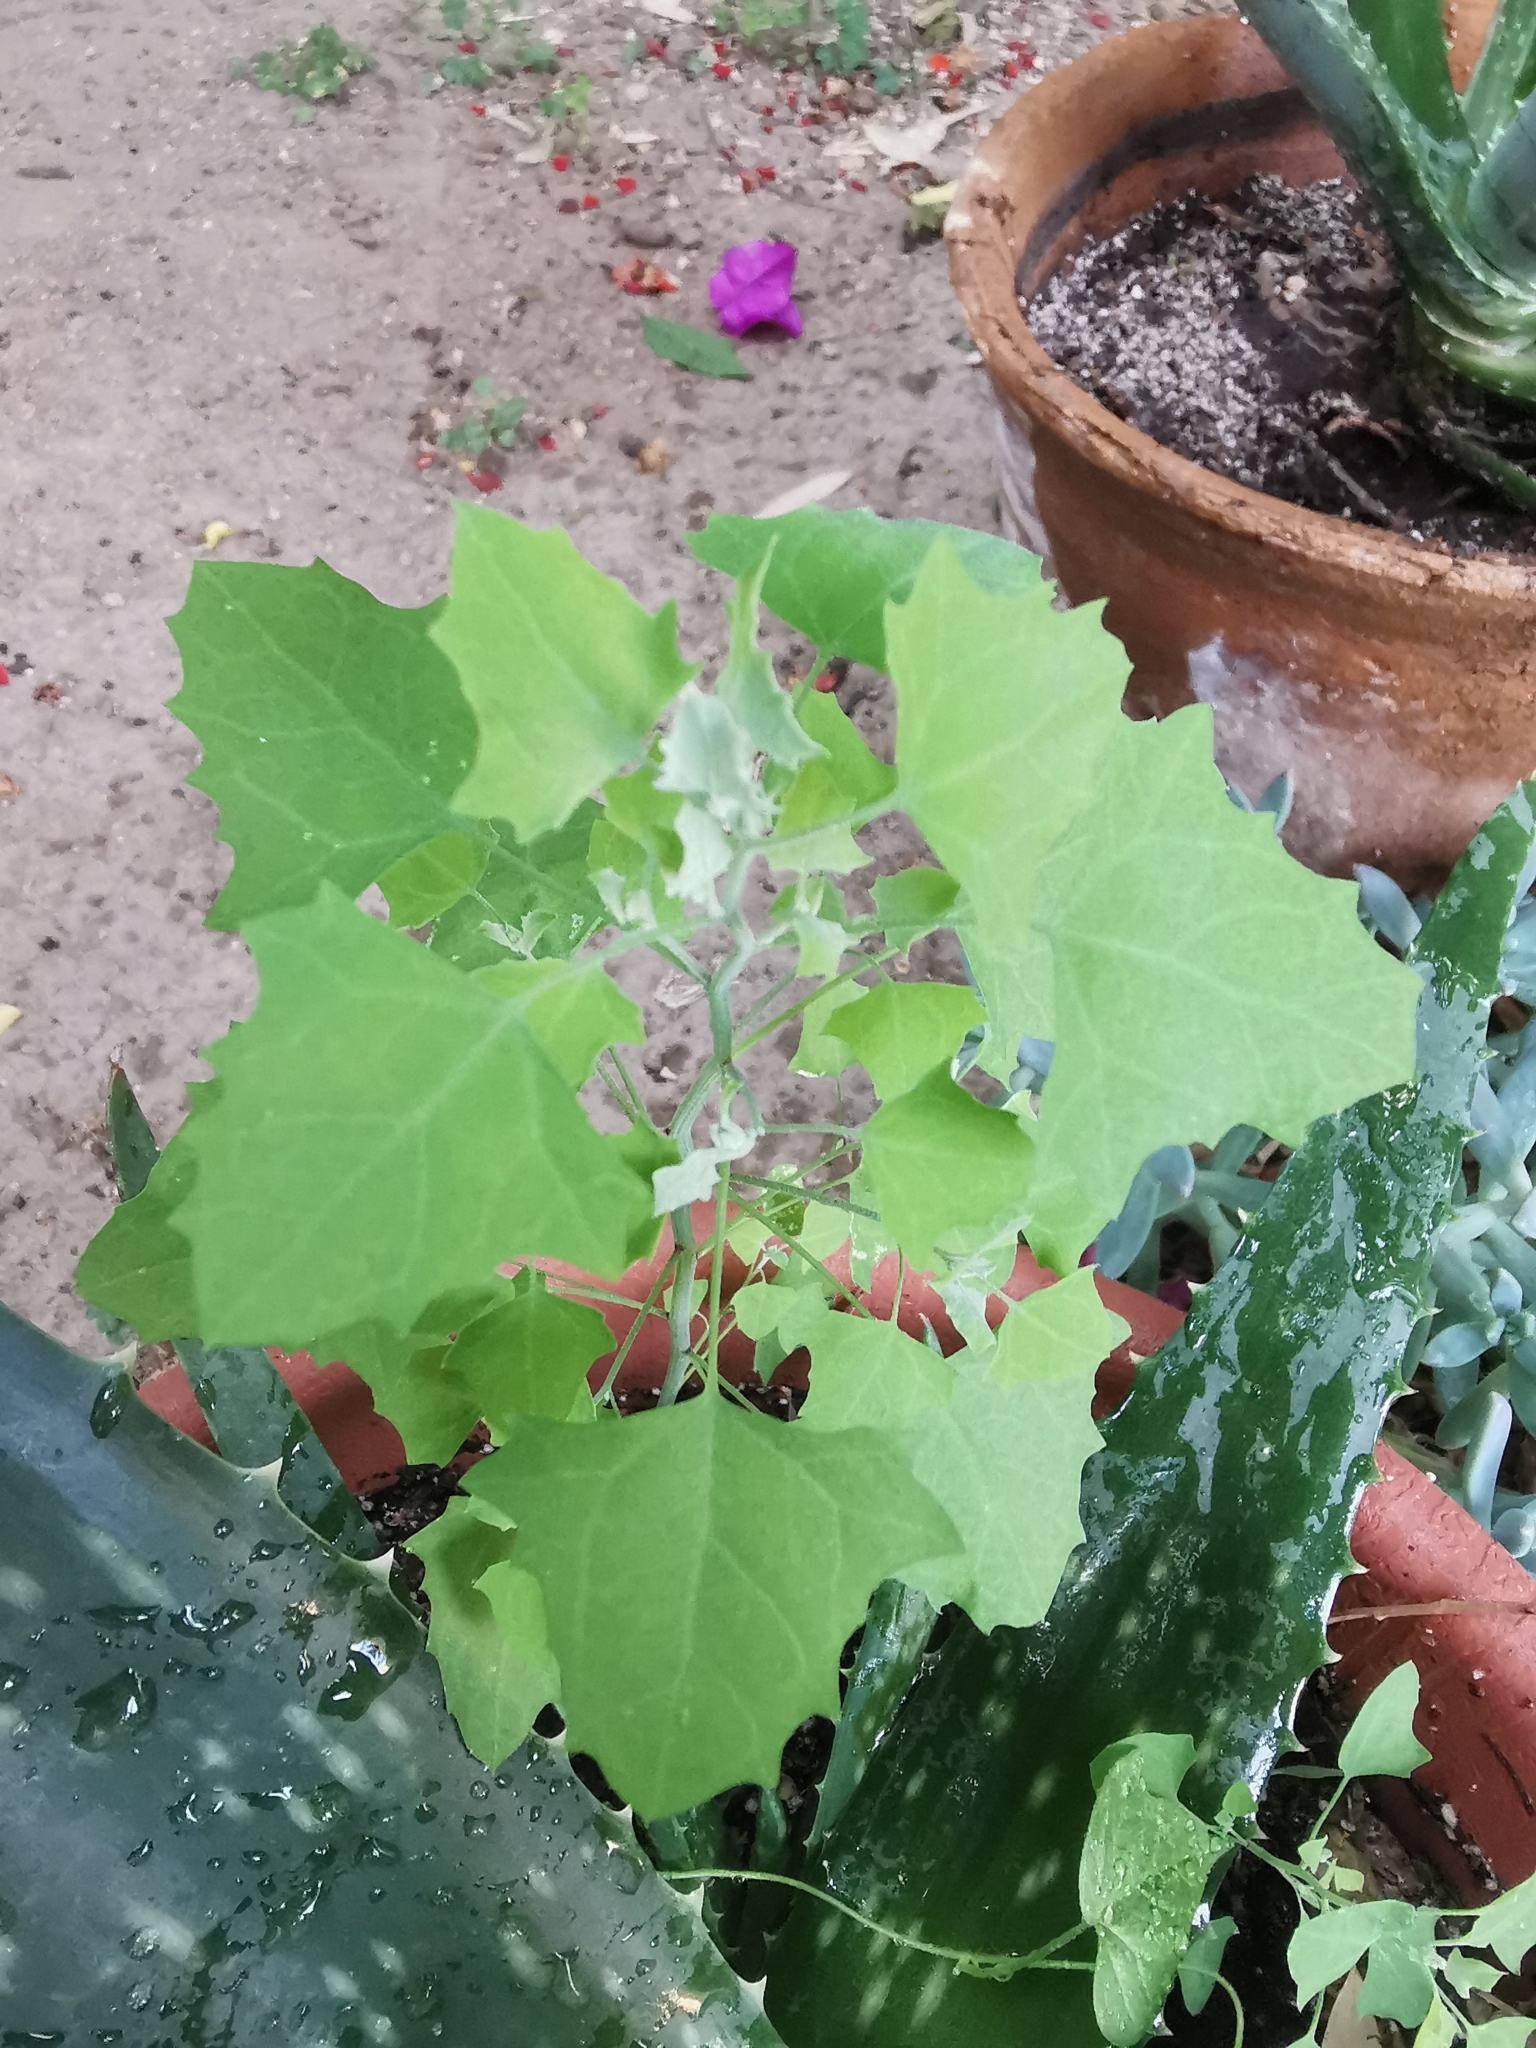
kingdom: Plantae
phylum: Tracheophyta
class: Magnoliopsida
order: Caryophyllales
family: Amaranthaceae
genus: Chenopodium
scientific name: Chenopodium album
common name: Fat-hen
